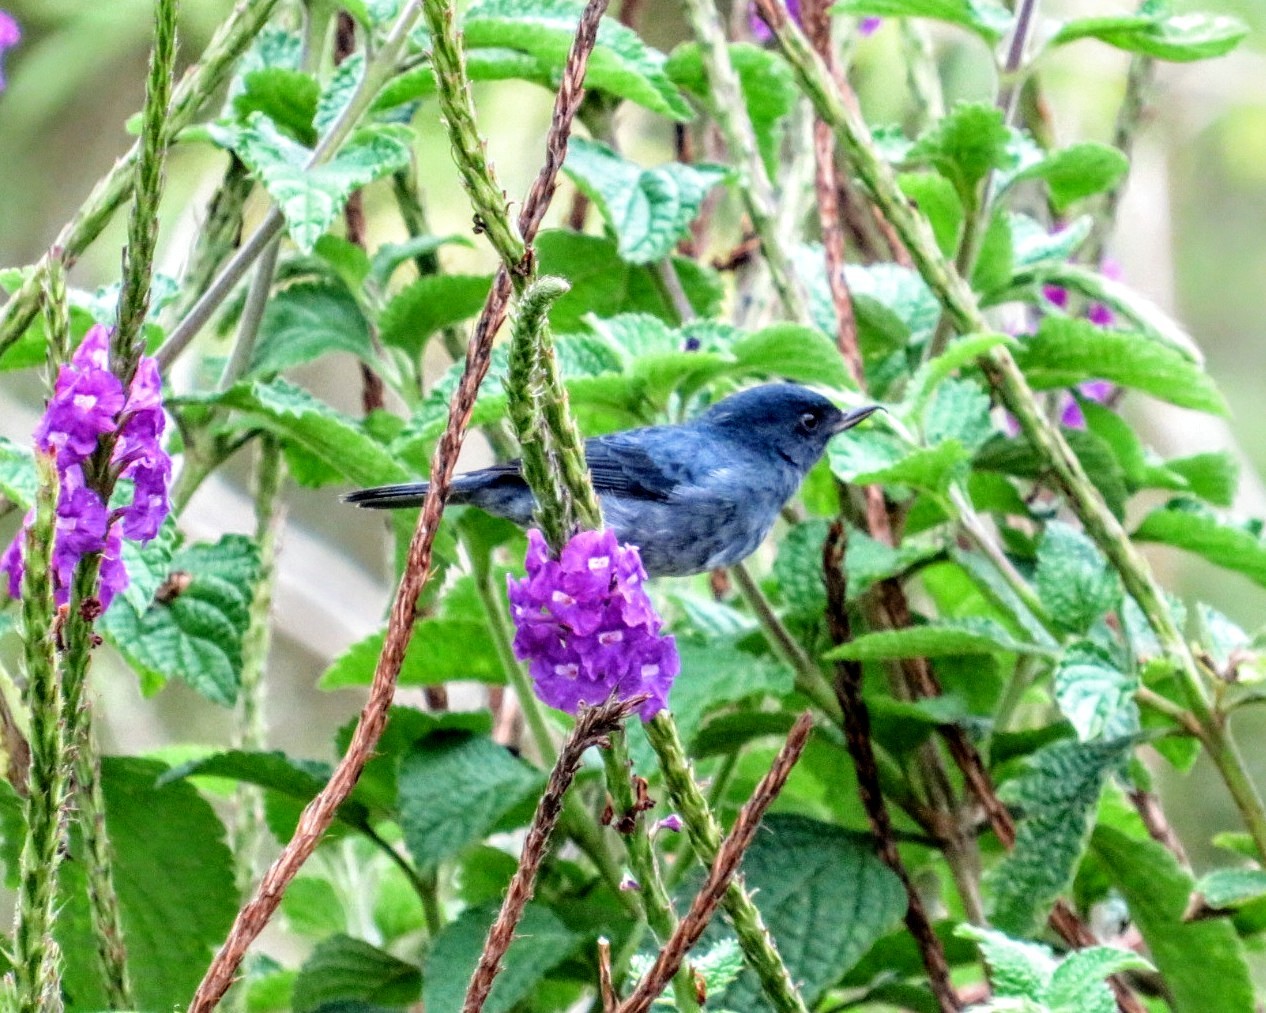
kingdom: Animalia
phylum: Chordata
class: Aves
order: Passeriformes
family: Thraupidae
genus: Diglossa
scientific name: Diglossa plumbea
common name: Slaty flowerpiercer
